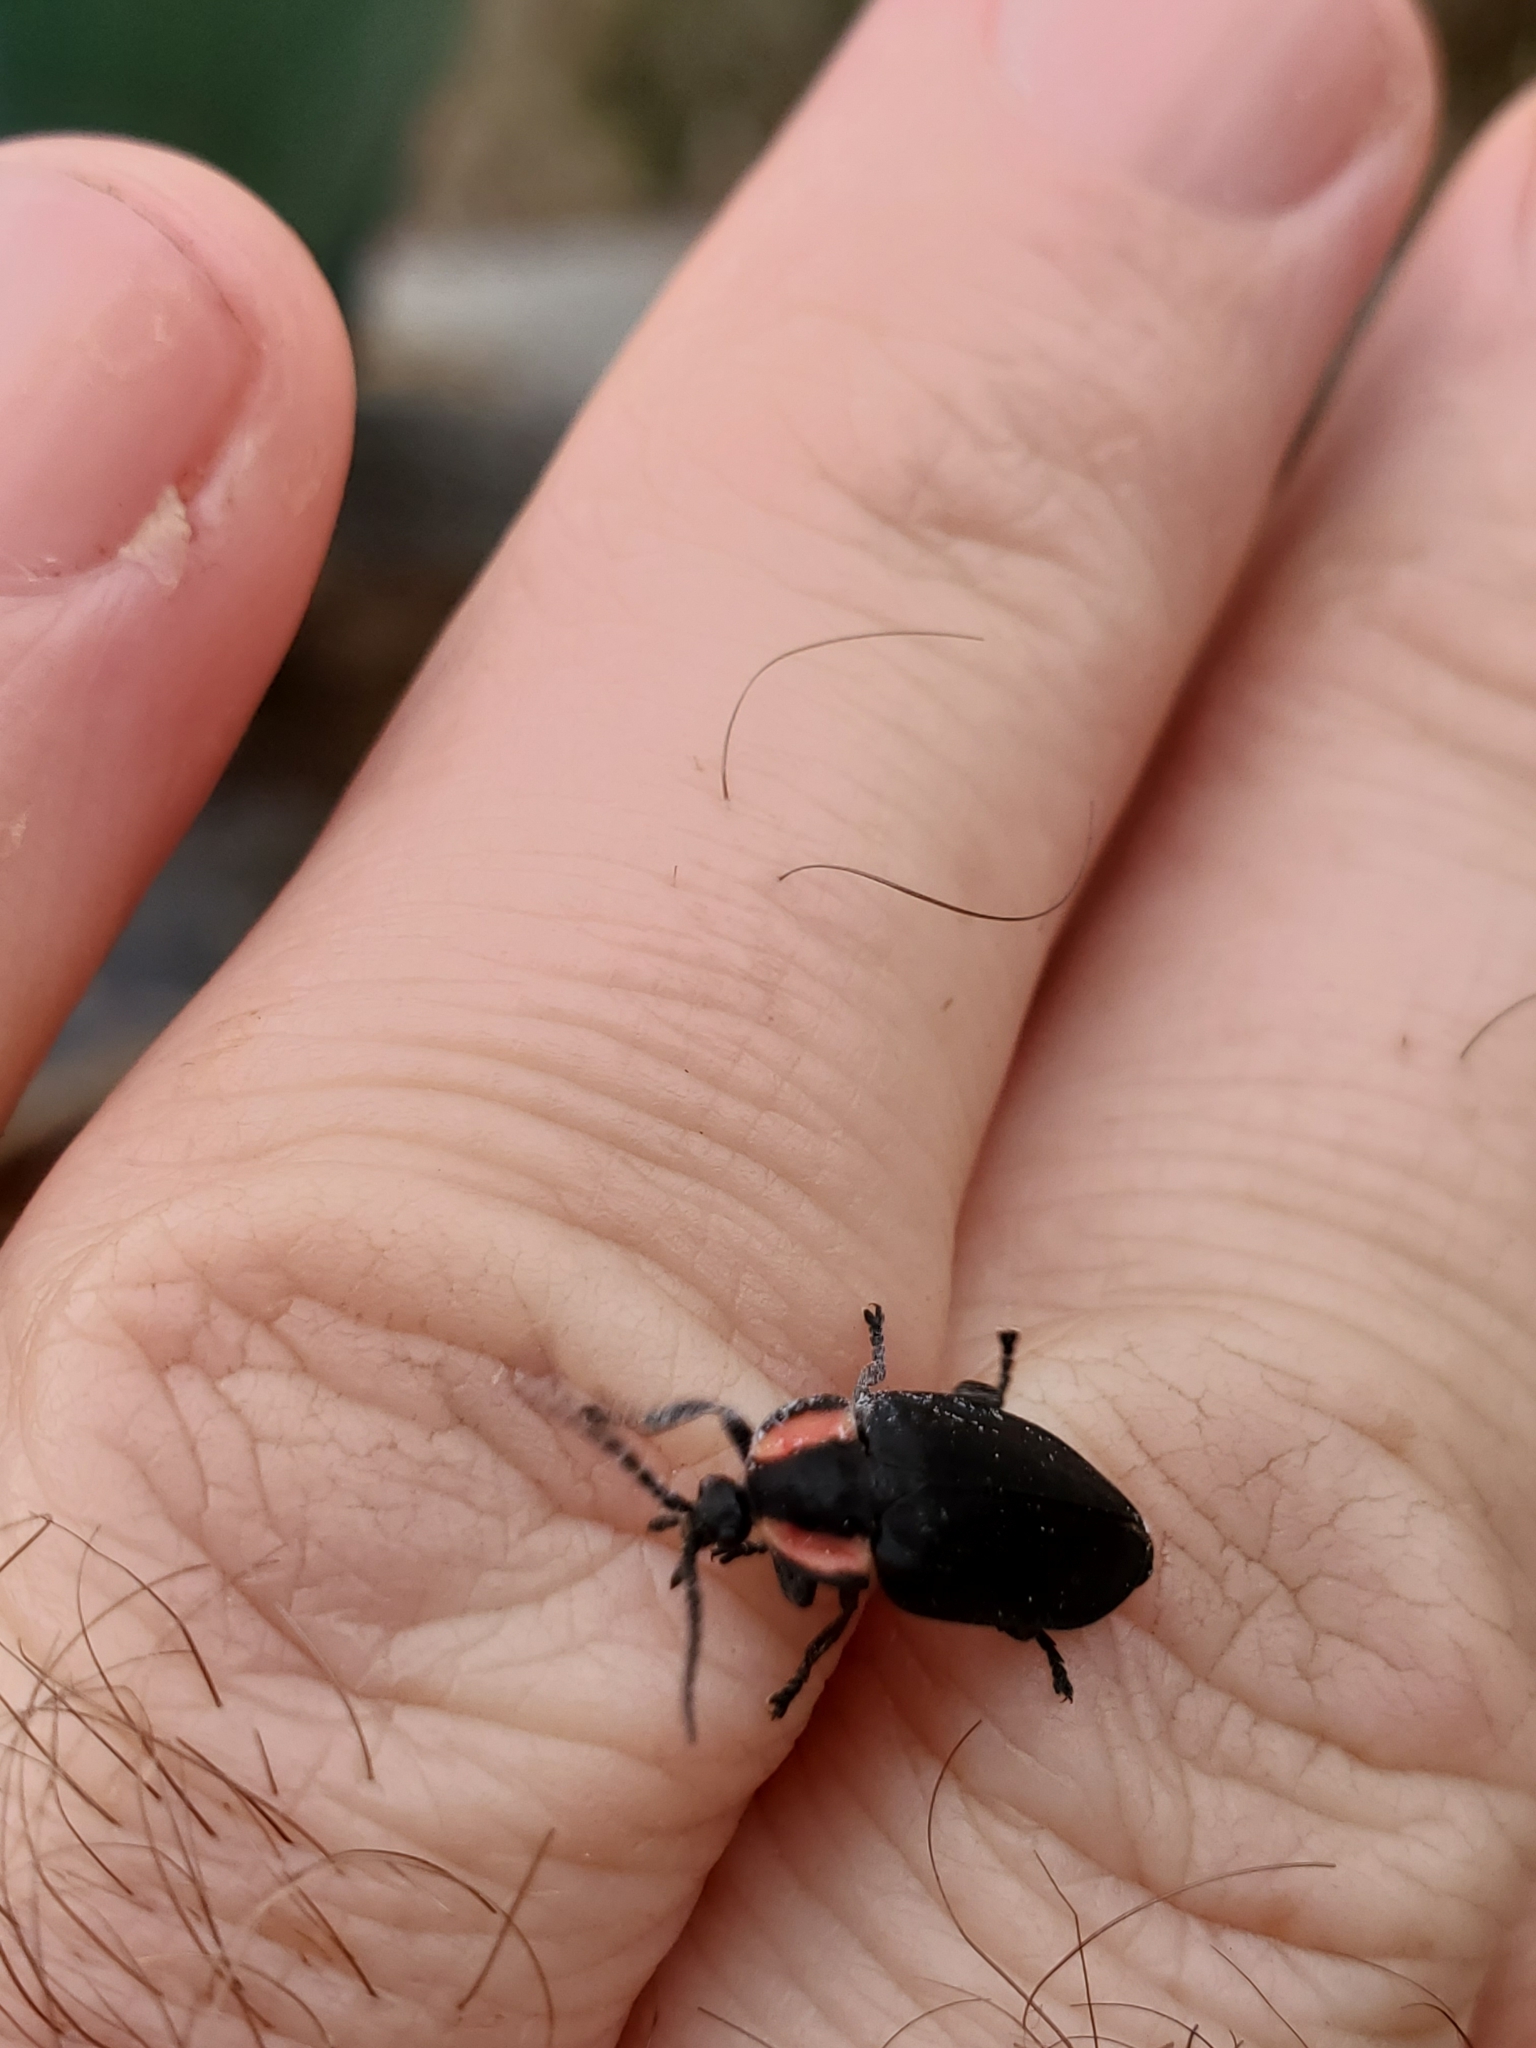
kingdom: Animalia
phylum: Arthropoda
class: Insecta
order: Coleoptera
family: Lampyridae
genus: Photinus
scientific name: Photinus californica
